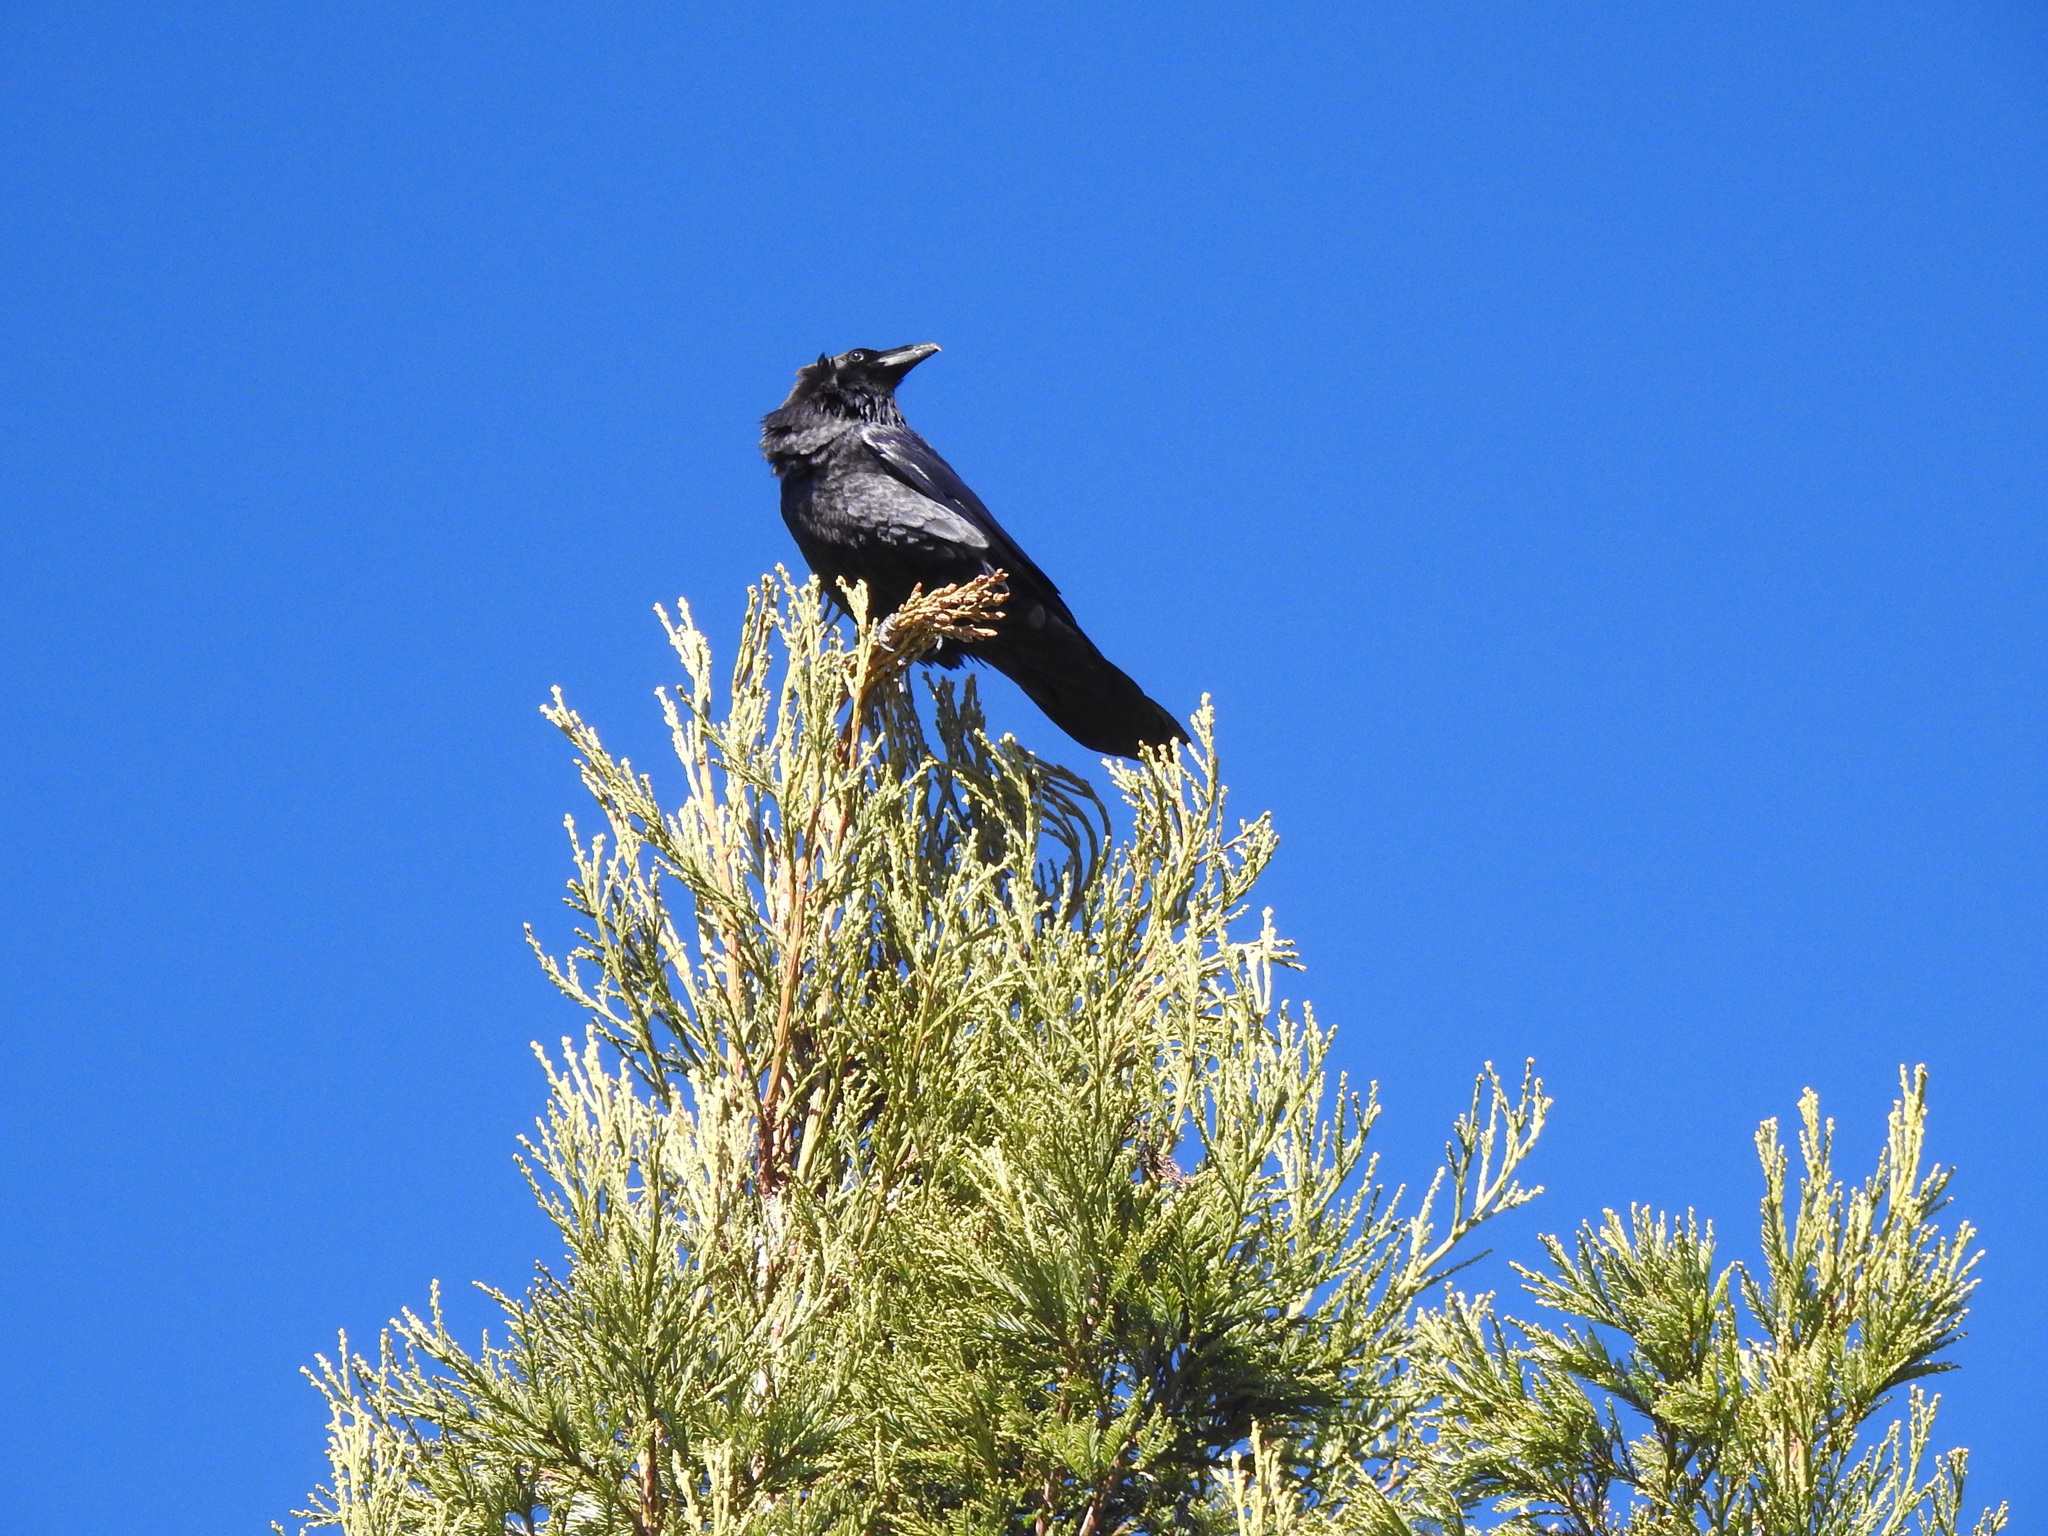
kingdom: Animalia
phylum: Chordata
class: Aves
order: Passeriformes
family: Corvidae
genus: Corvus
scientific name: Corvus corax
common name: Common raven
